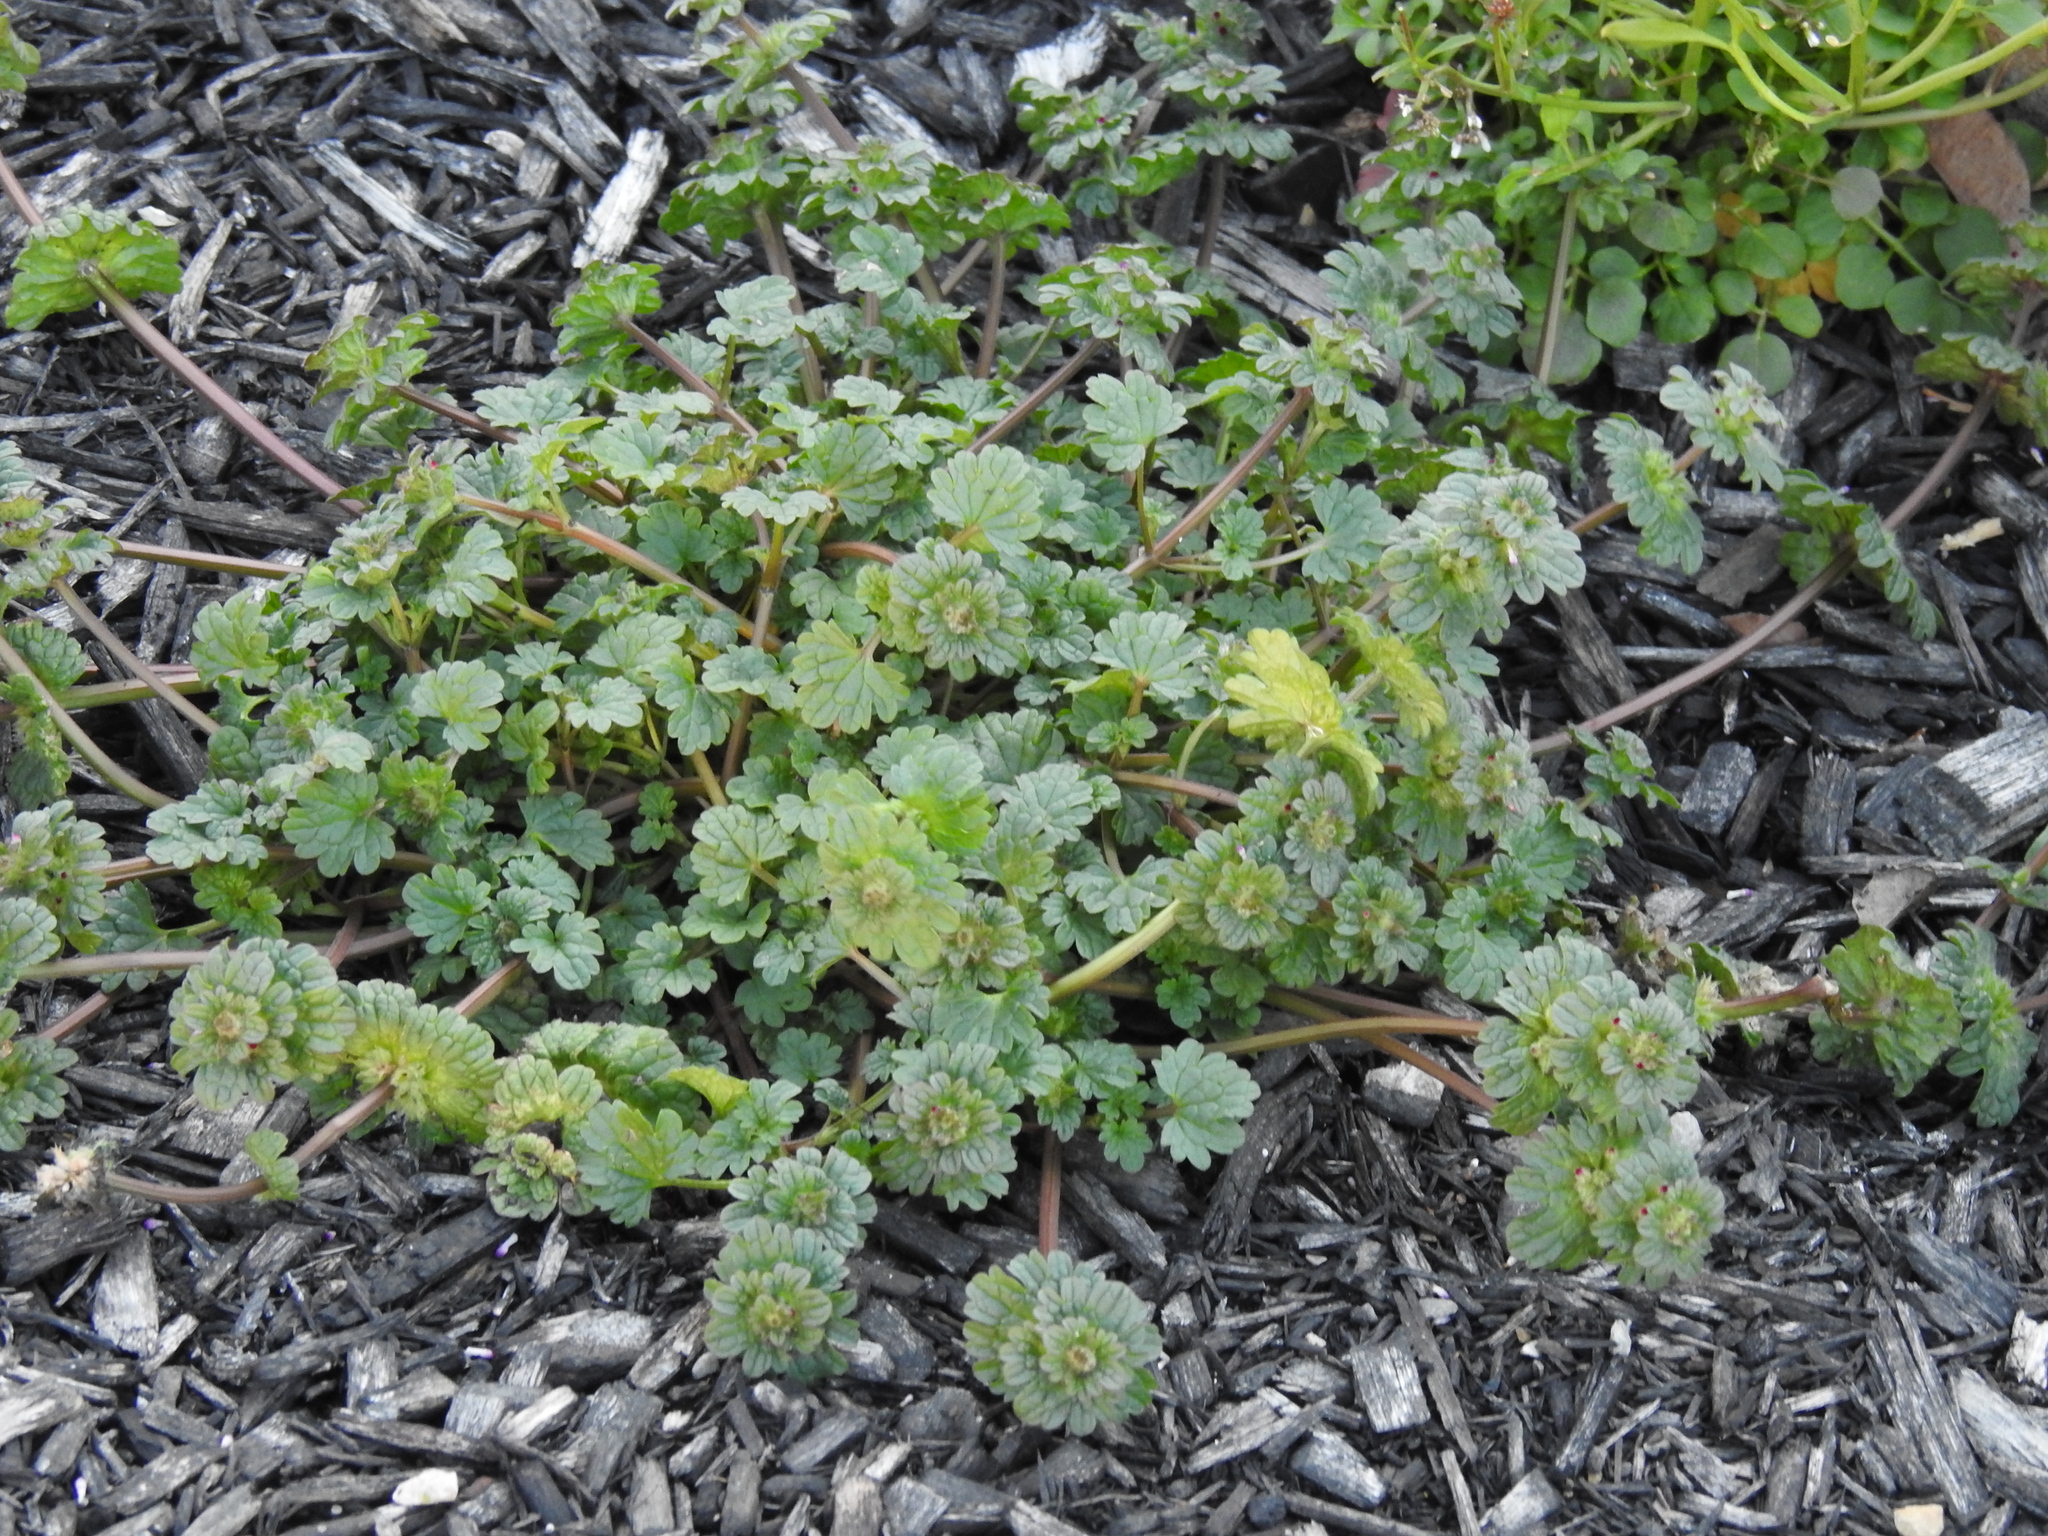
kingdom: Plantae
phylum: Tracheophyta
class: Magnoliopsida
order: Lamiales
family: Lamiaceae
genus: Lamium
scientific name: Lamium amplexicaule
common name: Henbit dead-nettle
